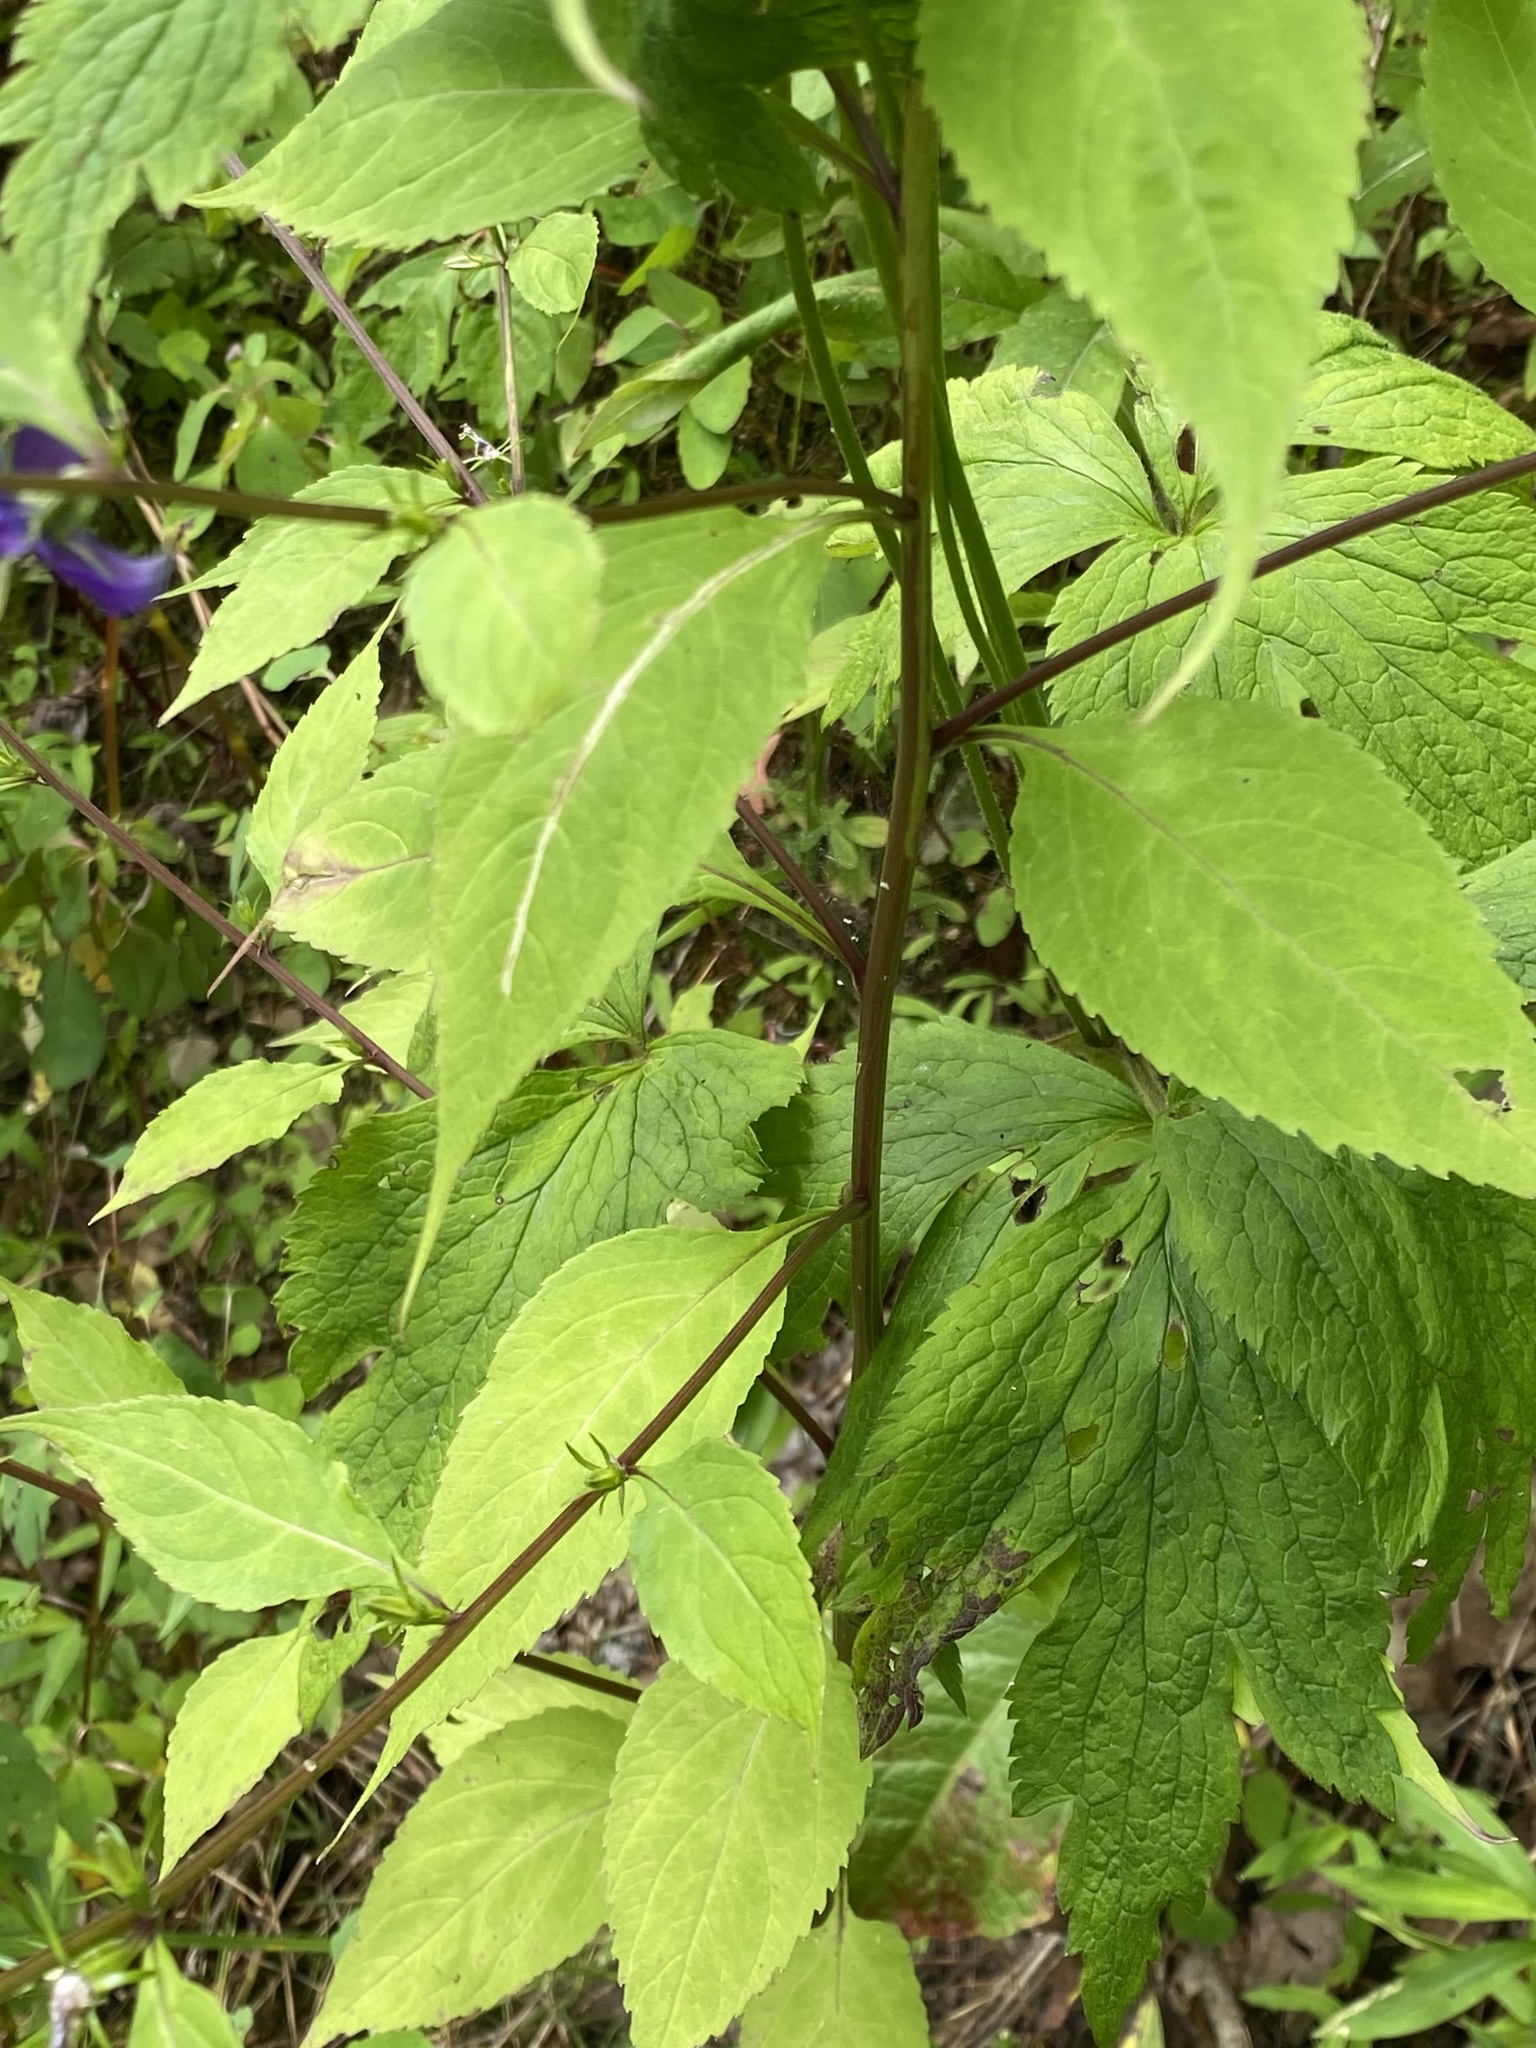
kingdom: Plantae
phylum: Tracheophyta
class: Magnoliopsida
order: Asterales
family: Campanulaceae
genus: Campanulastrum
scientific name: Campanulastrum americanum
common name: American bellflower
